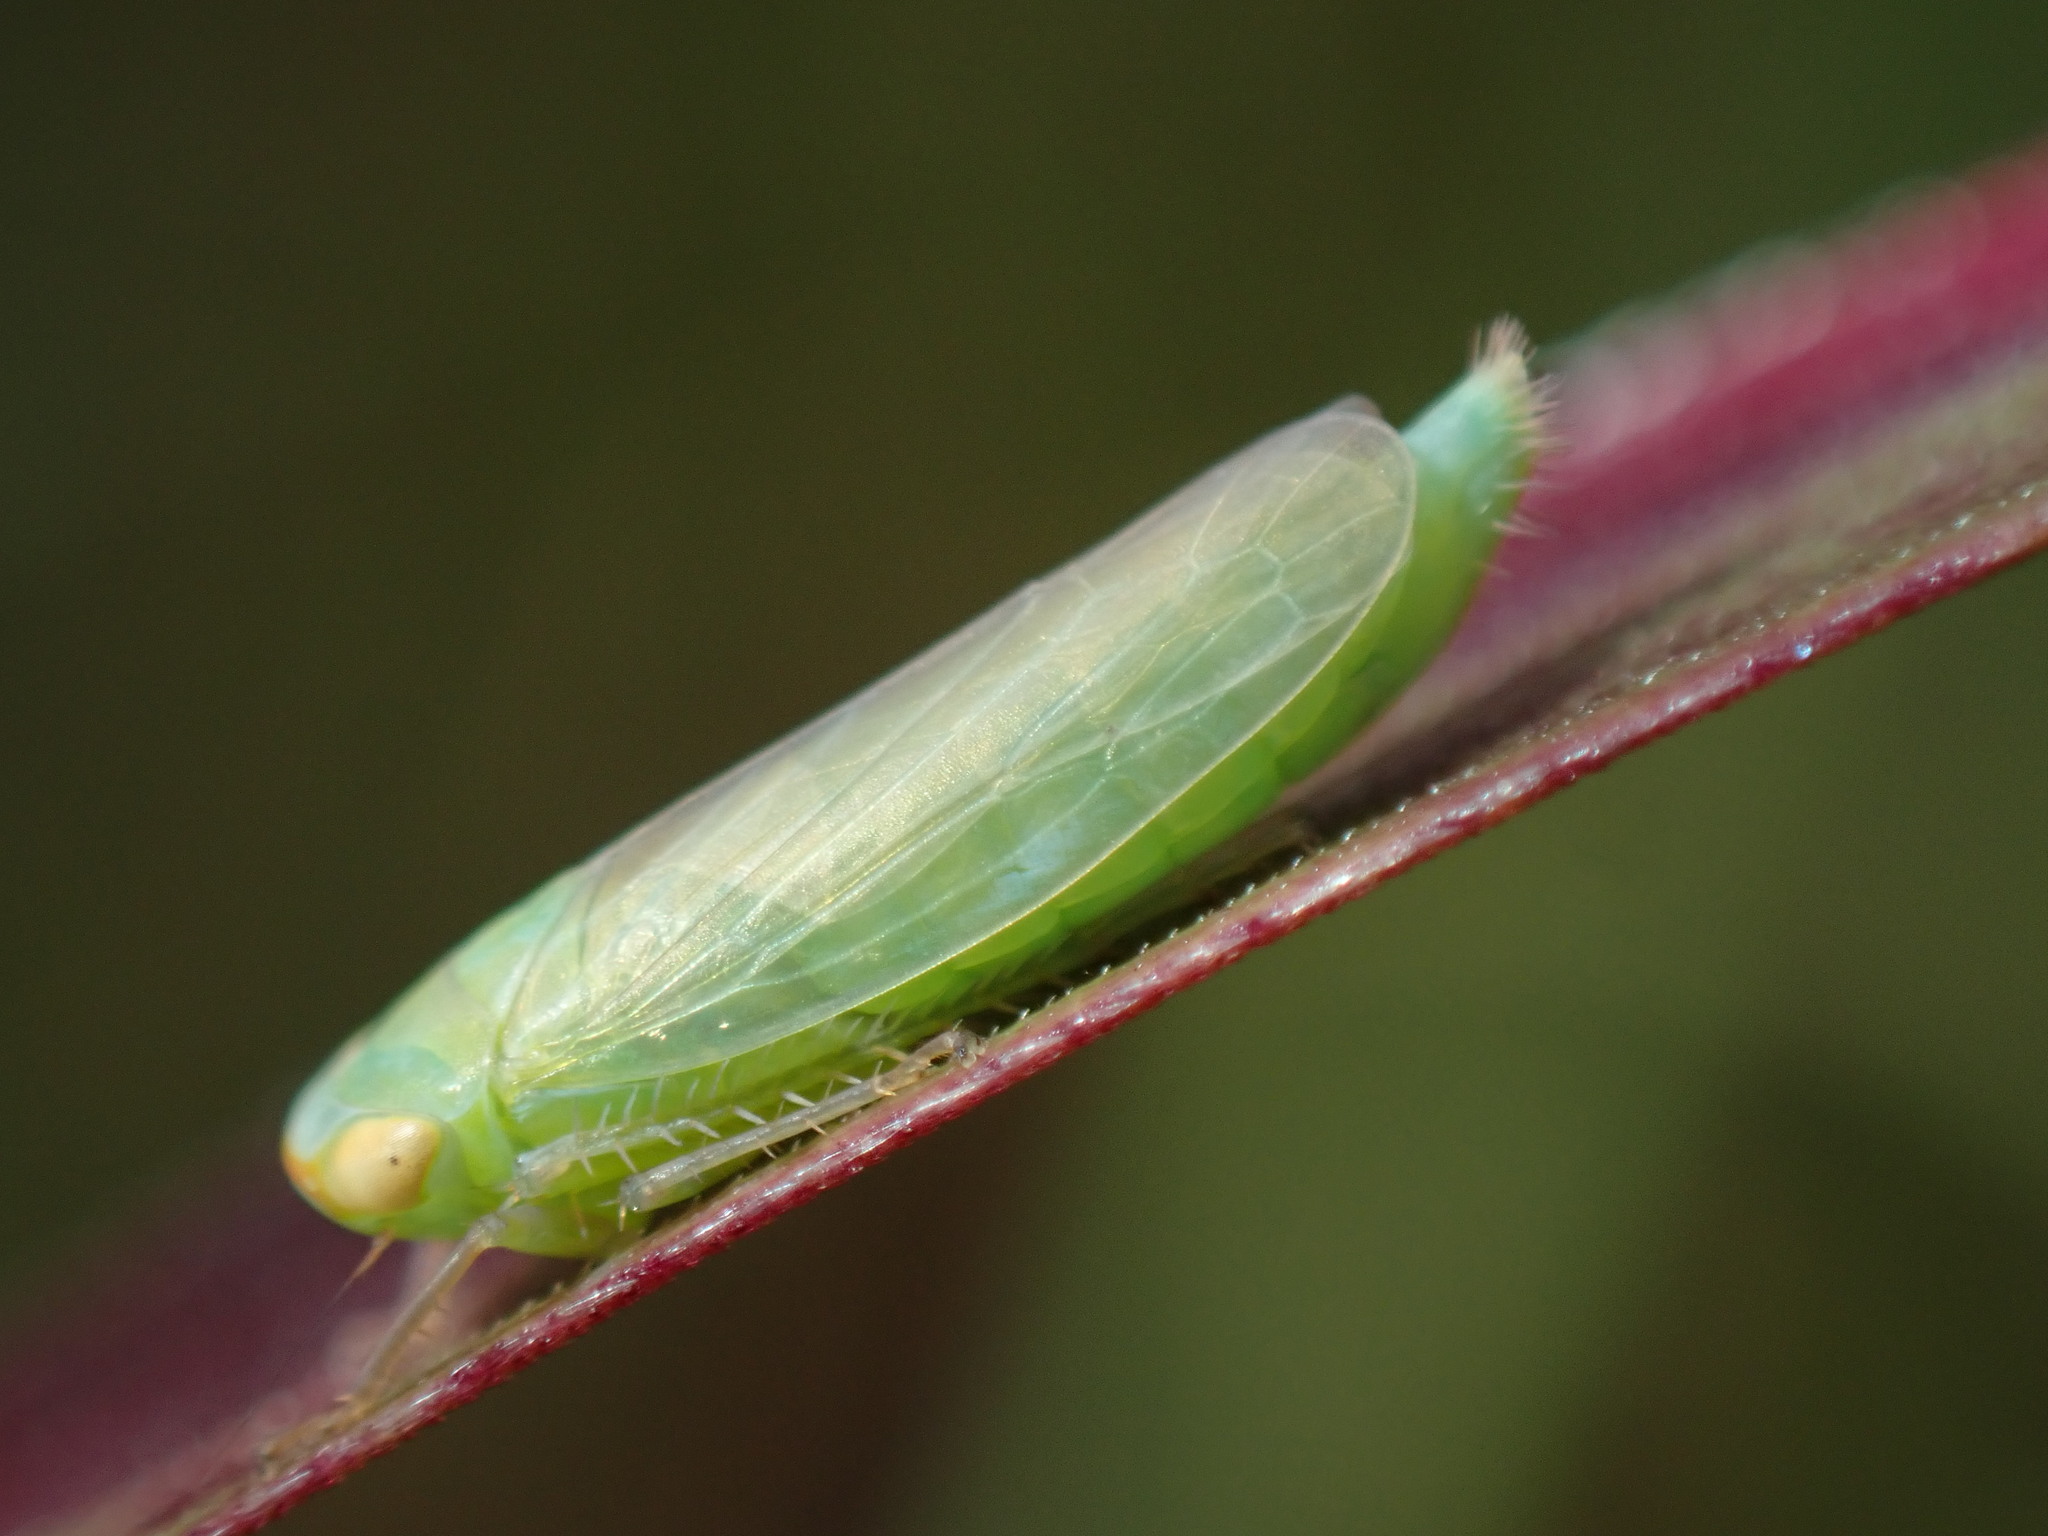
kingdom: Animalia
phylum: Arthropoda
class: Insecta
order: Hemiptera
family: Cicadellidae
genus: Chlorotettix
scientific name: Chlorotettix rugicollis
